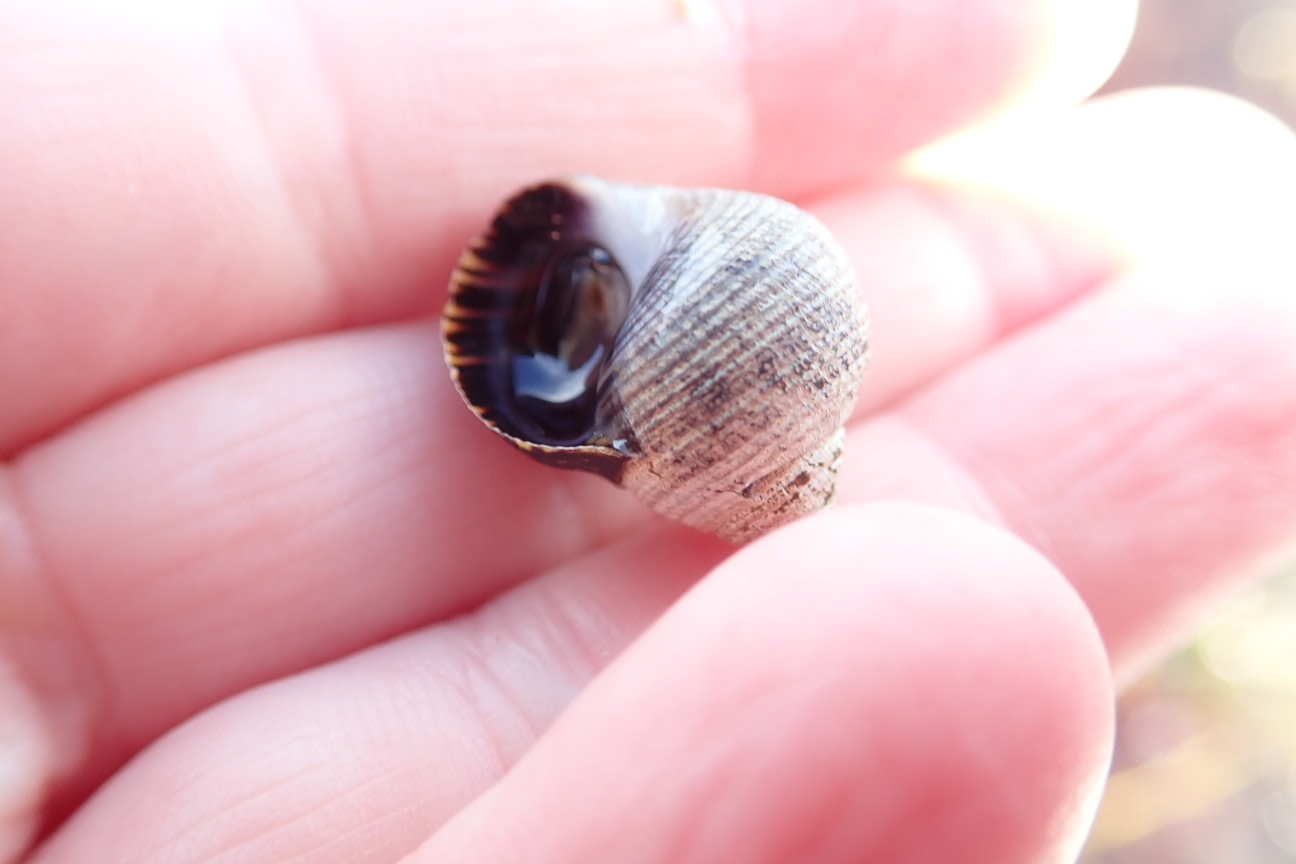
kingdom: Animalia
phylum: Mollusca
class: Gastropoda
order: Littorinimorpha
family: Littorinidae
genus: Littorina
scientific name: Littorina littorea
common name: Common periwinkle
